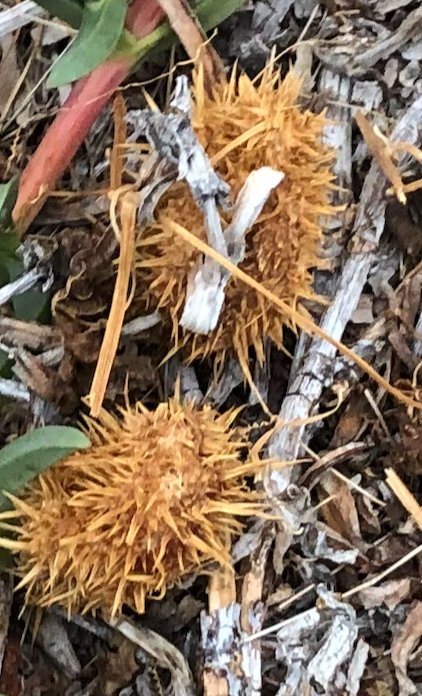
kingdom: Plantae
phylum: Tracheophyta
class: Magnoliopsida
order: Cucurbitales
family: Cucurbitaceae
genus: Marah
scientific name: Marah macrocarpa
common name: Cucamonga manroot
